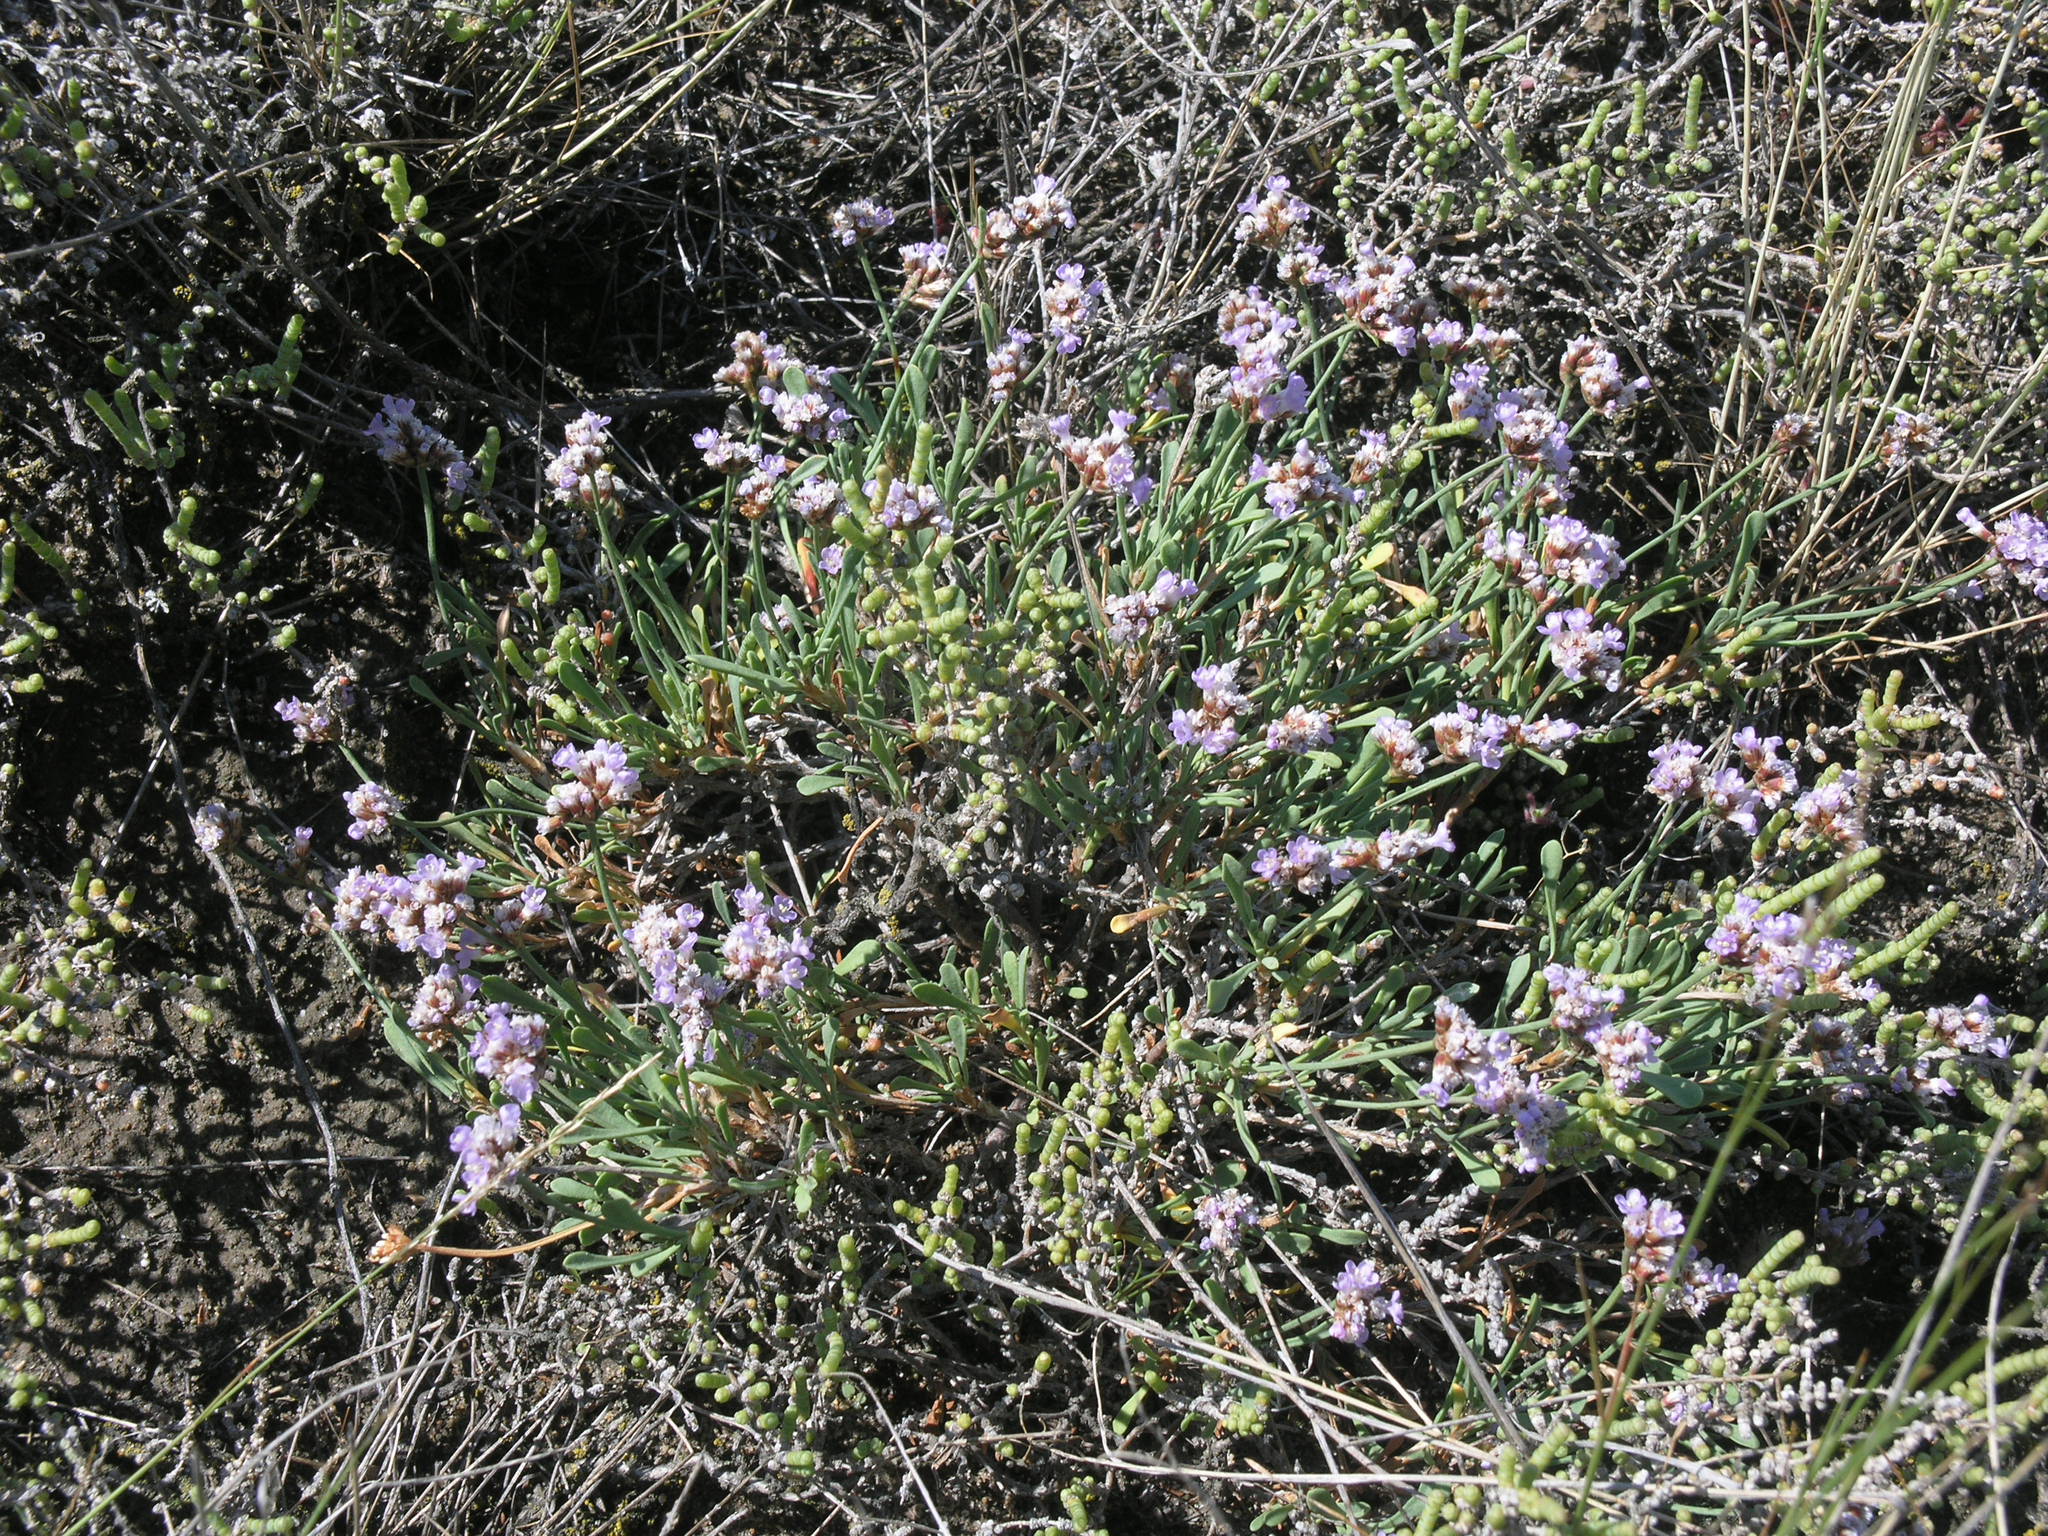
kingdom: Plantae
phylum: Tracheophyta
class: Magnoliopsida
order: Caryophyllales
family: Plumbaginaceae
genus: Limonium
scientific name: Limonium suffruticosum
